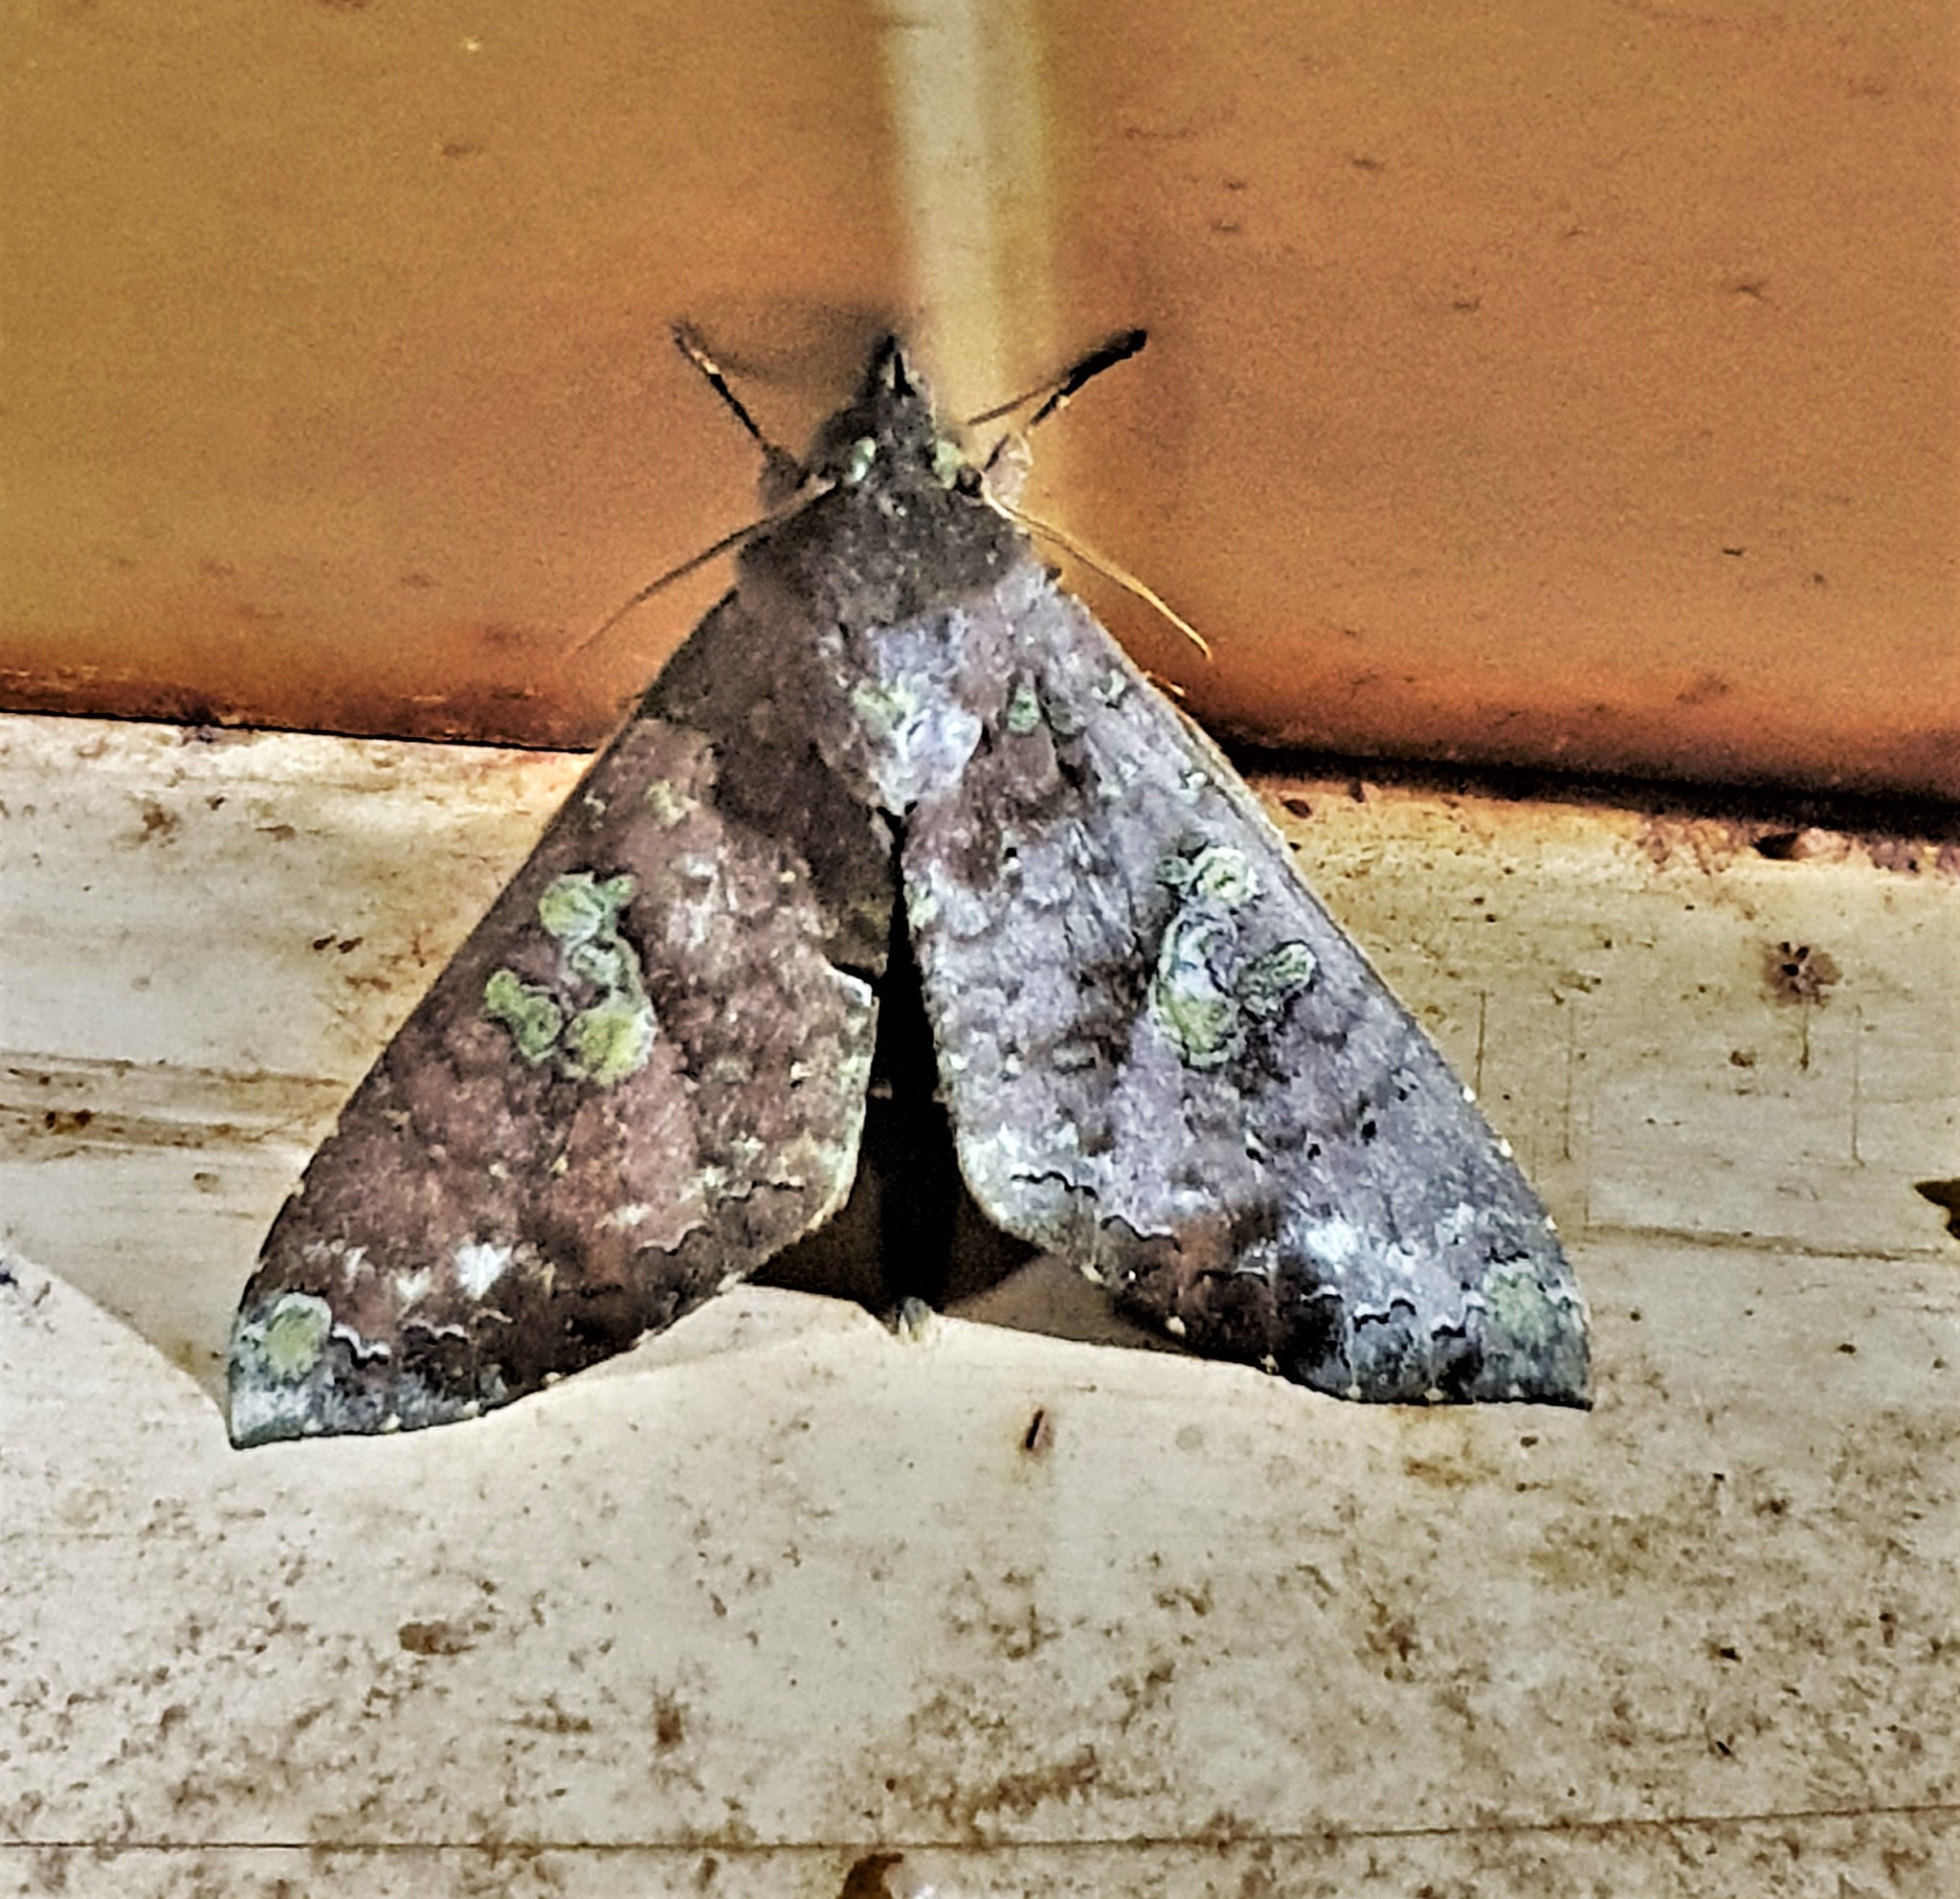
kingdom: Animalia
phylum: Arthropoda
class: Insecta
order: Lepidoptera
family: Notodontidae
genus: Hapigia
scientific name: Hapigia gaudens
